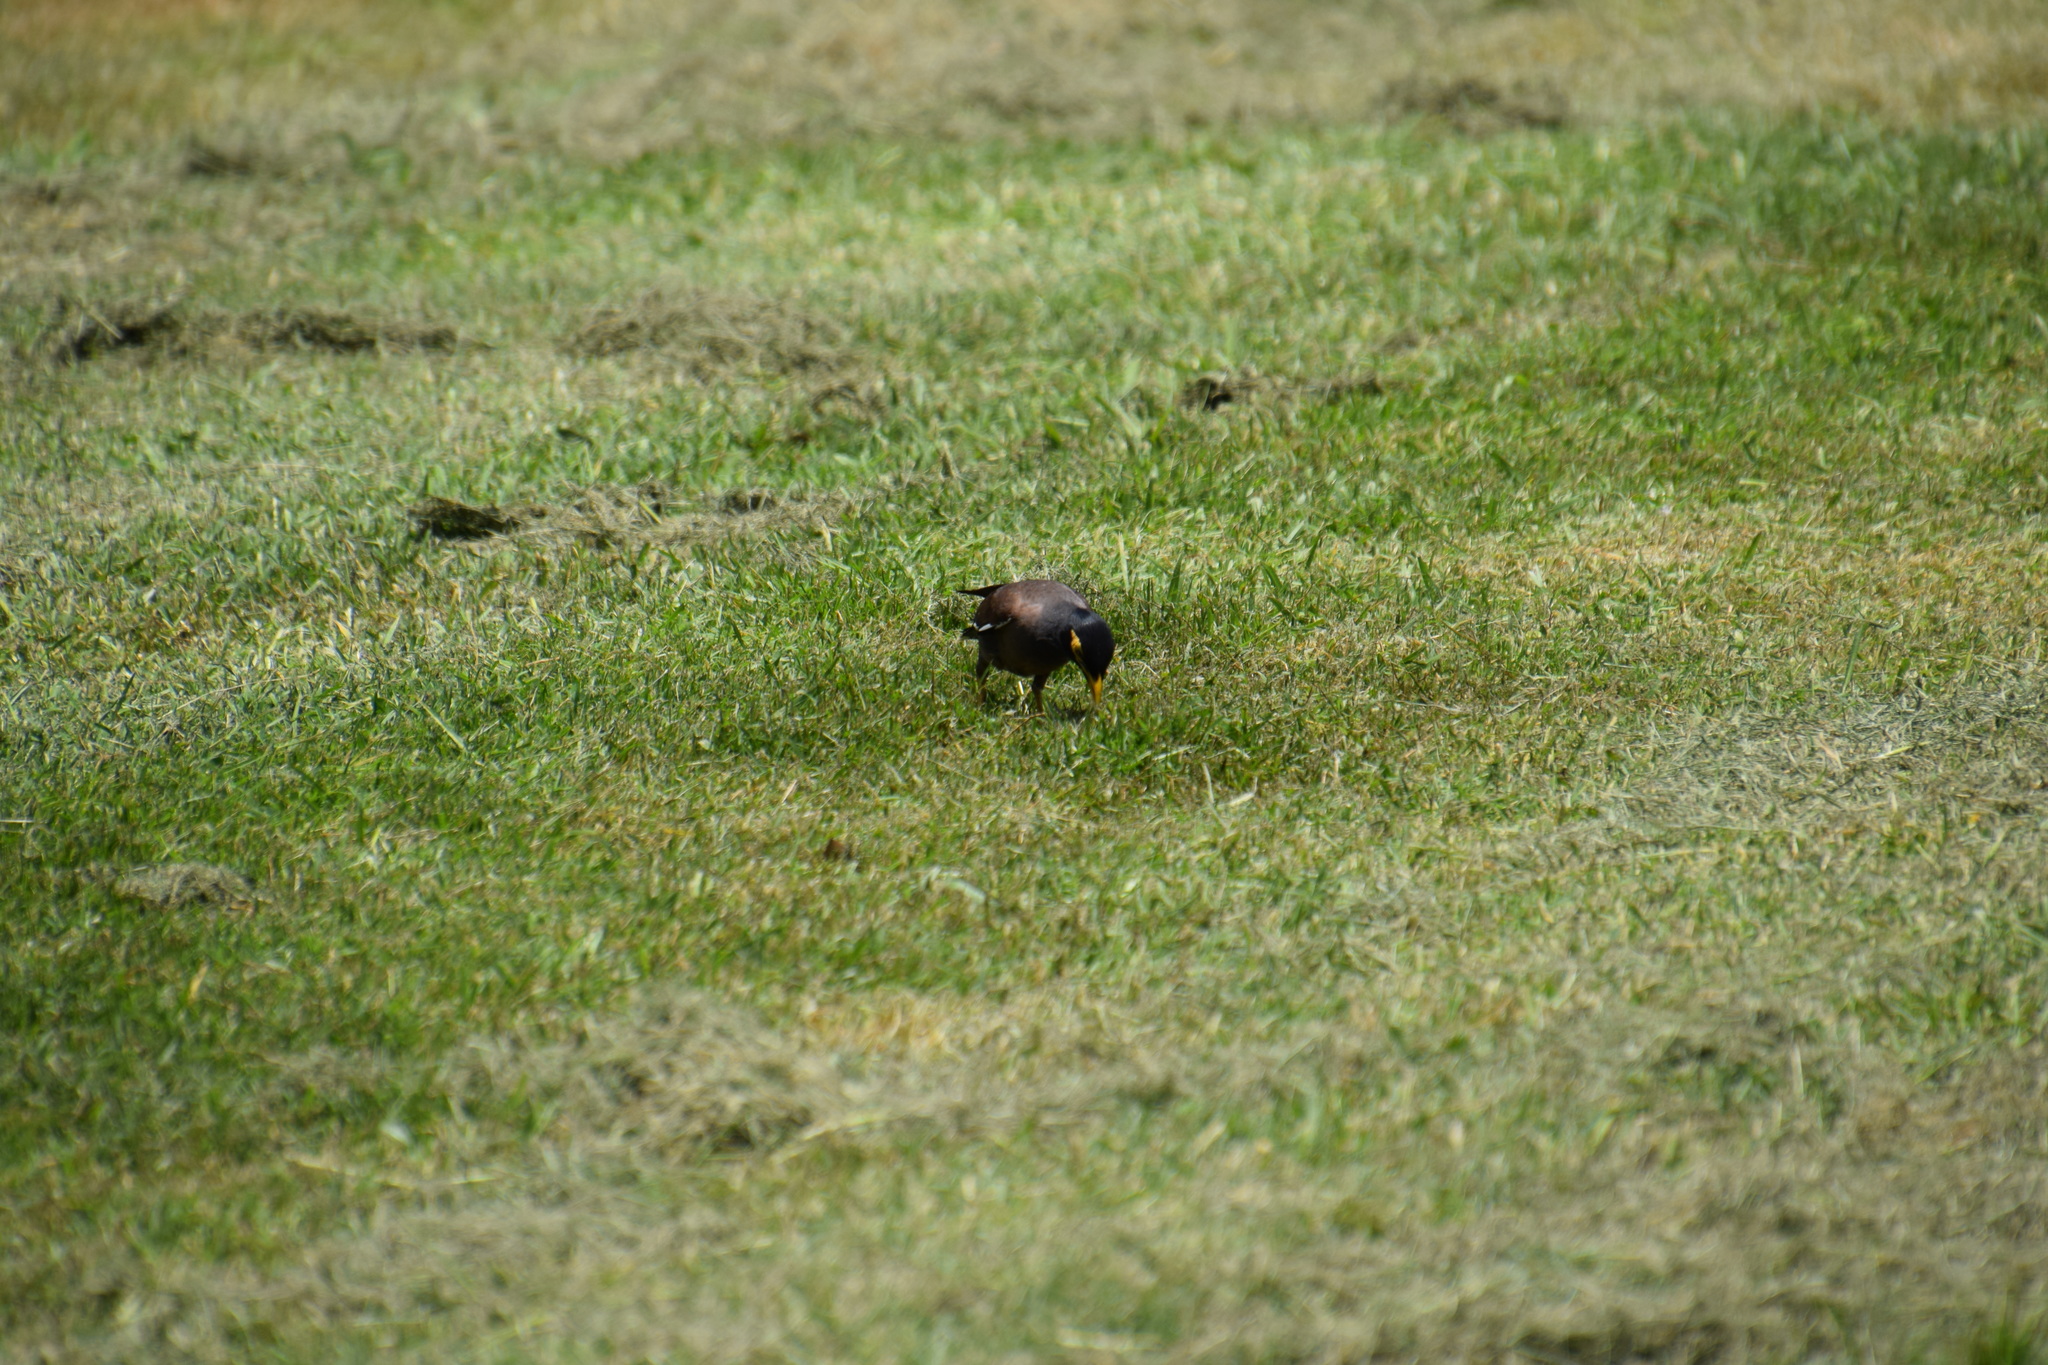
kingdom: Animalia
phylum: Chordata
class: Aves
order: Passeriformes
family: Sturnidae
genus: Acridotheres
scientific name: Acridotheres tristis
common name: Common myna
